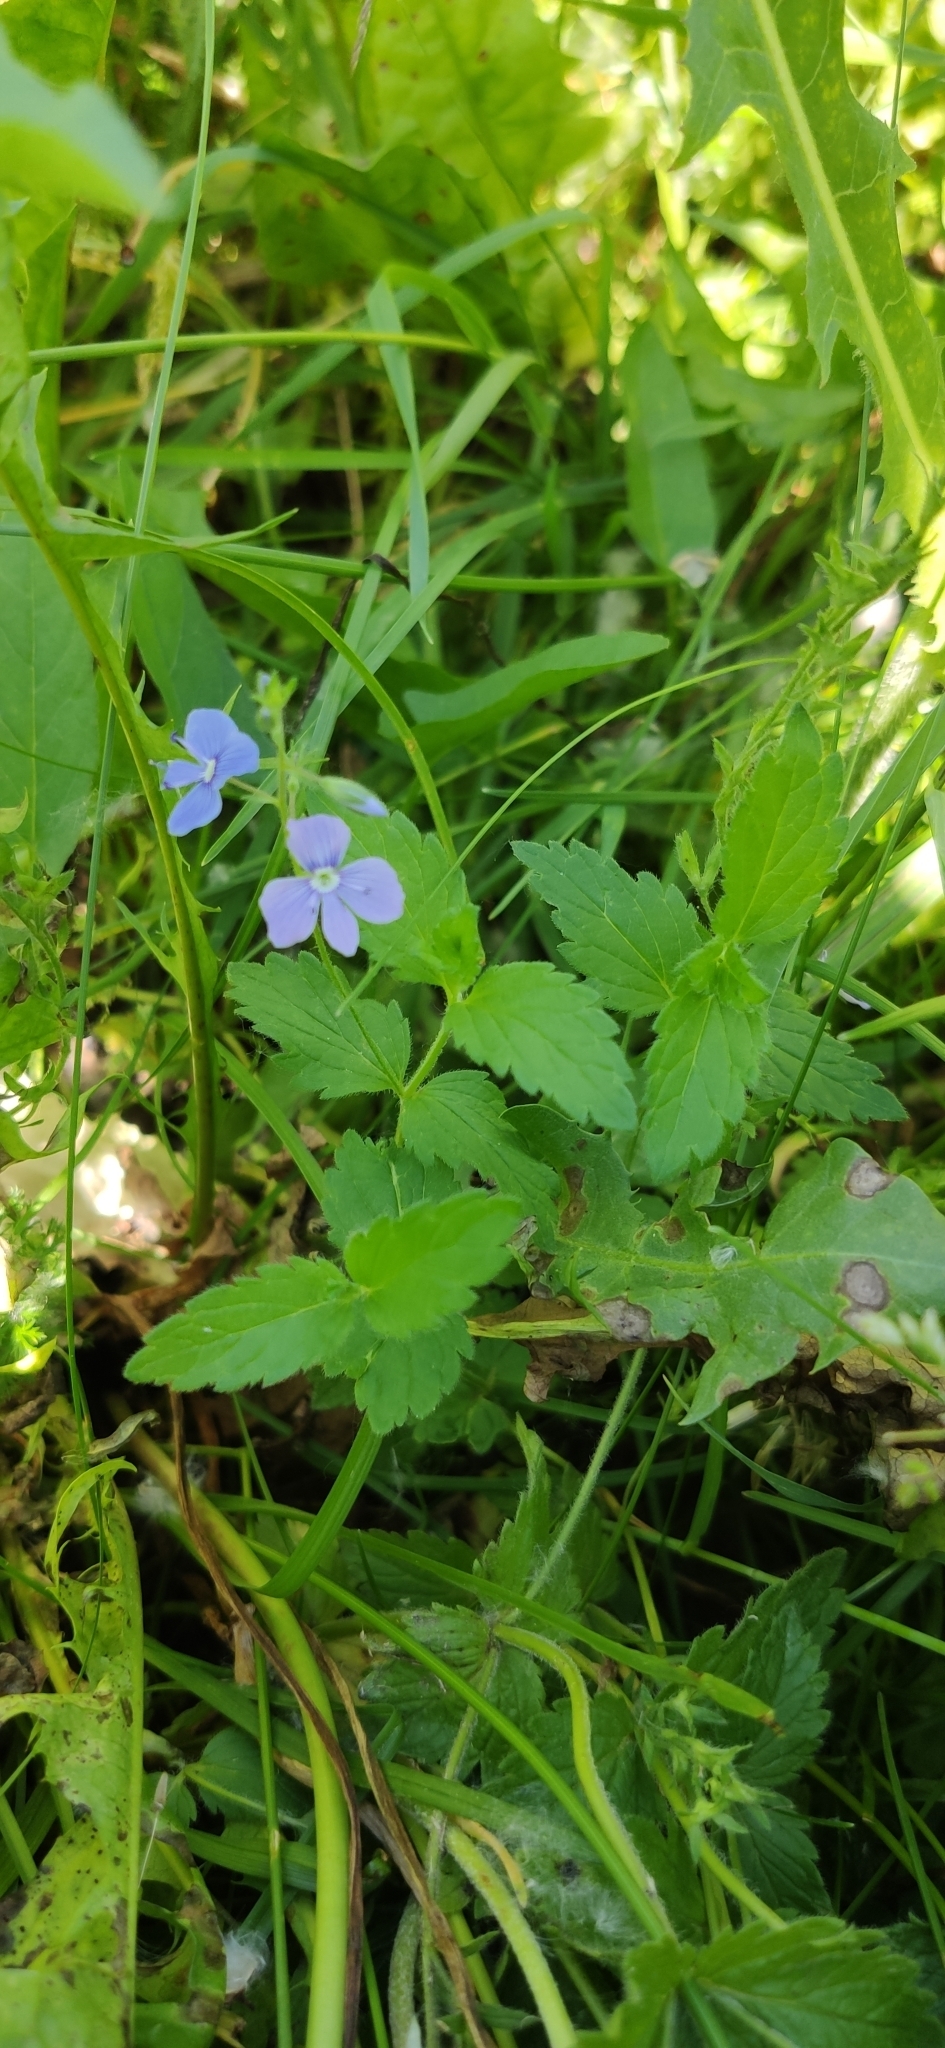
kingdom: Plantae
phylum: Tracheophyta
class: Magnoliopsida
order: Lamiales
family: Plantaginaceae
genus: Veronica
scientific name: Veronica chamaedrys
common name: Germander speedwell
